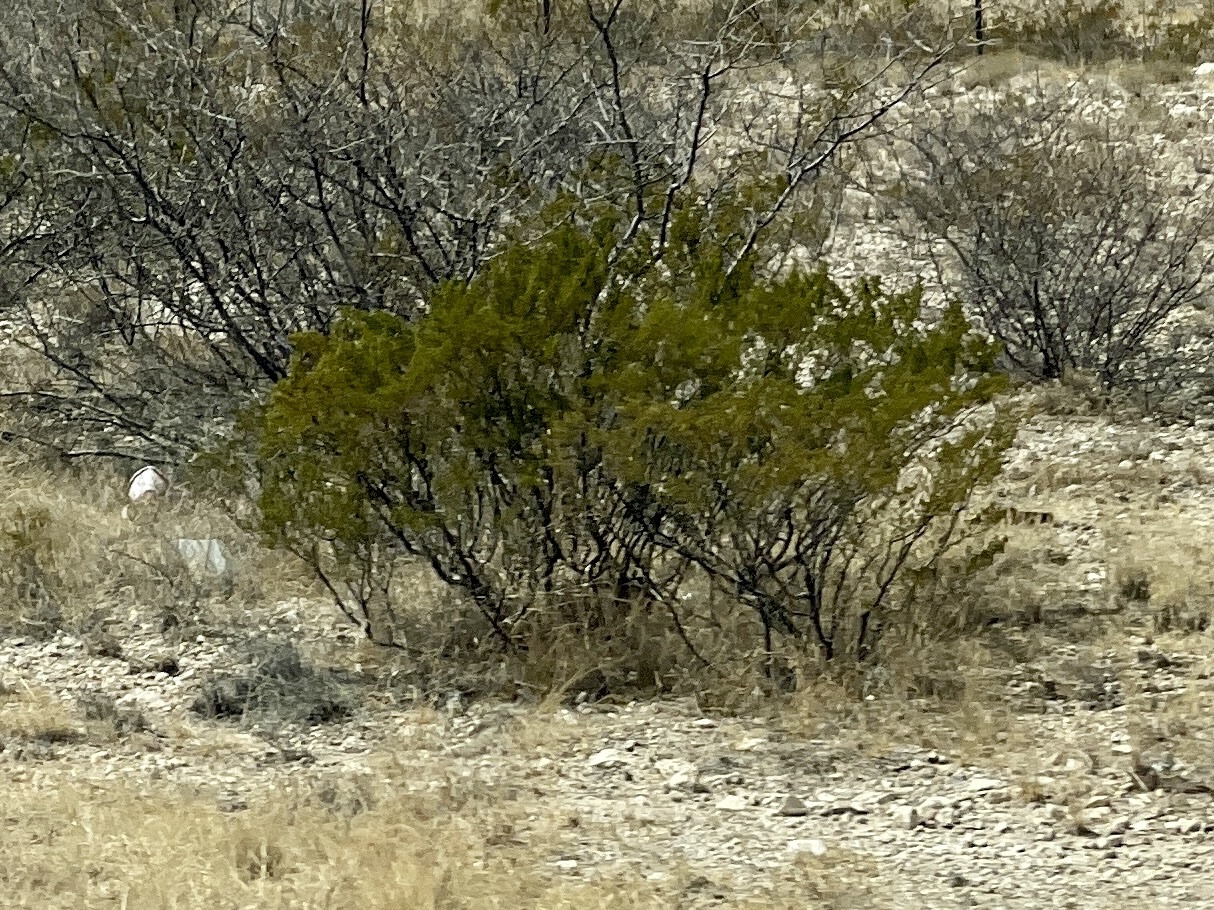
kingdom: Plantae
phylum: Tracheophyta
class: Magnoliopsida
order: Zygophyllales
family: Zygophyllaceae
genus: Larrea
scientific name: Larrea tridentata
